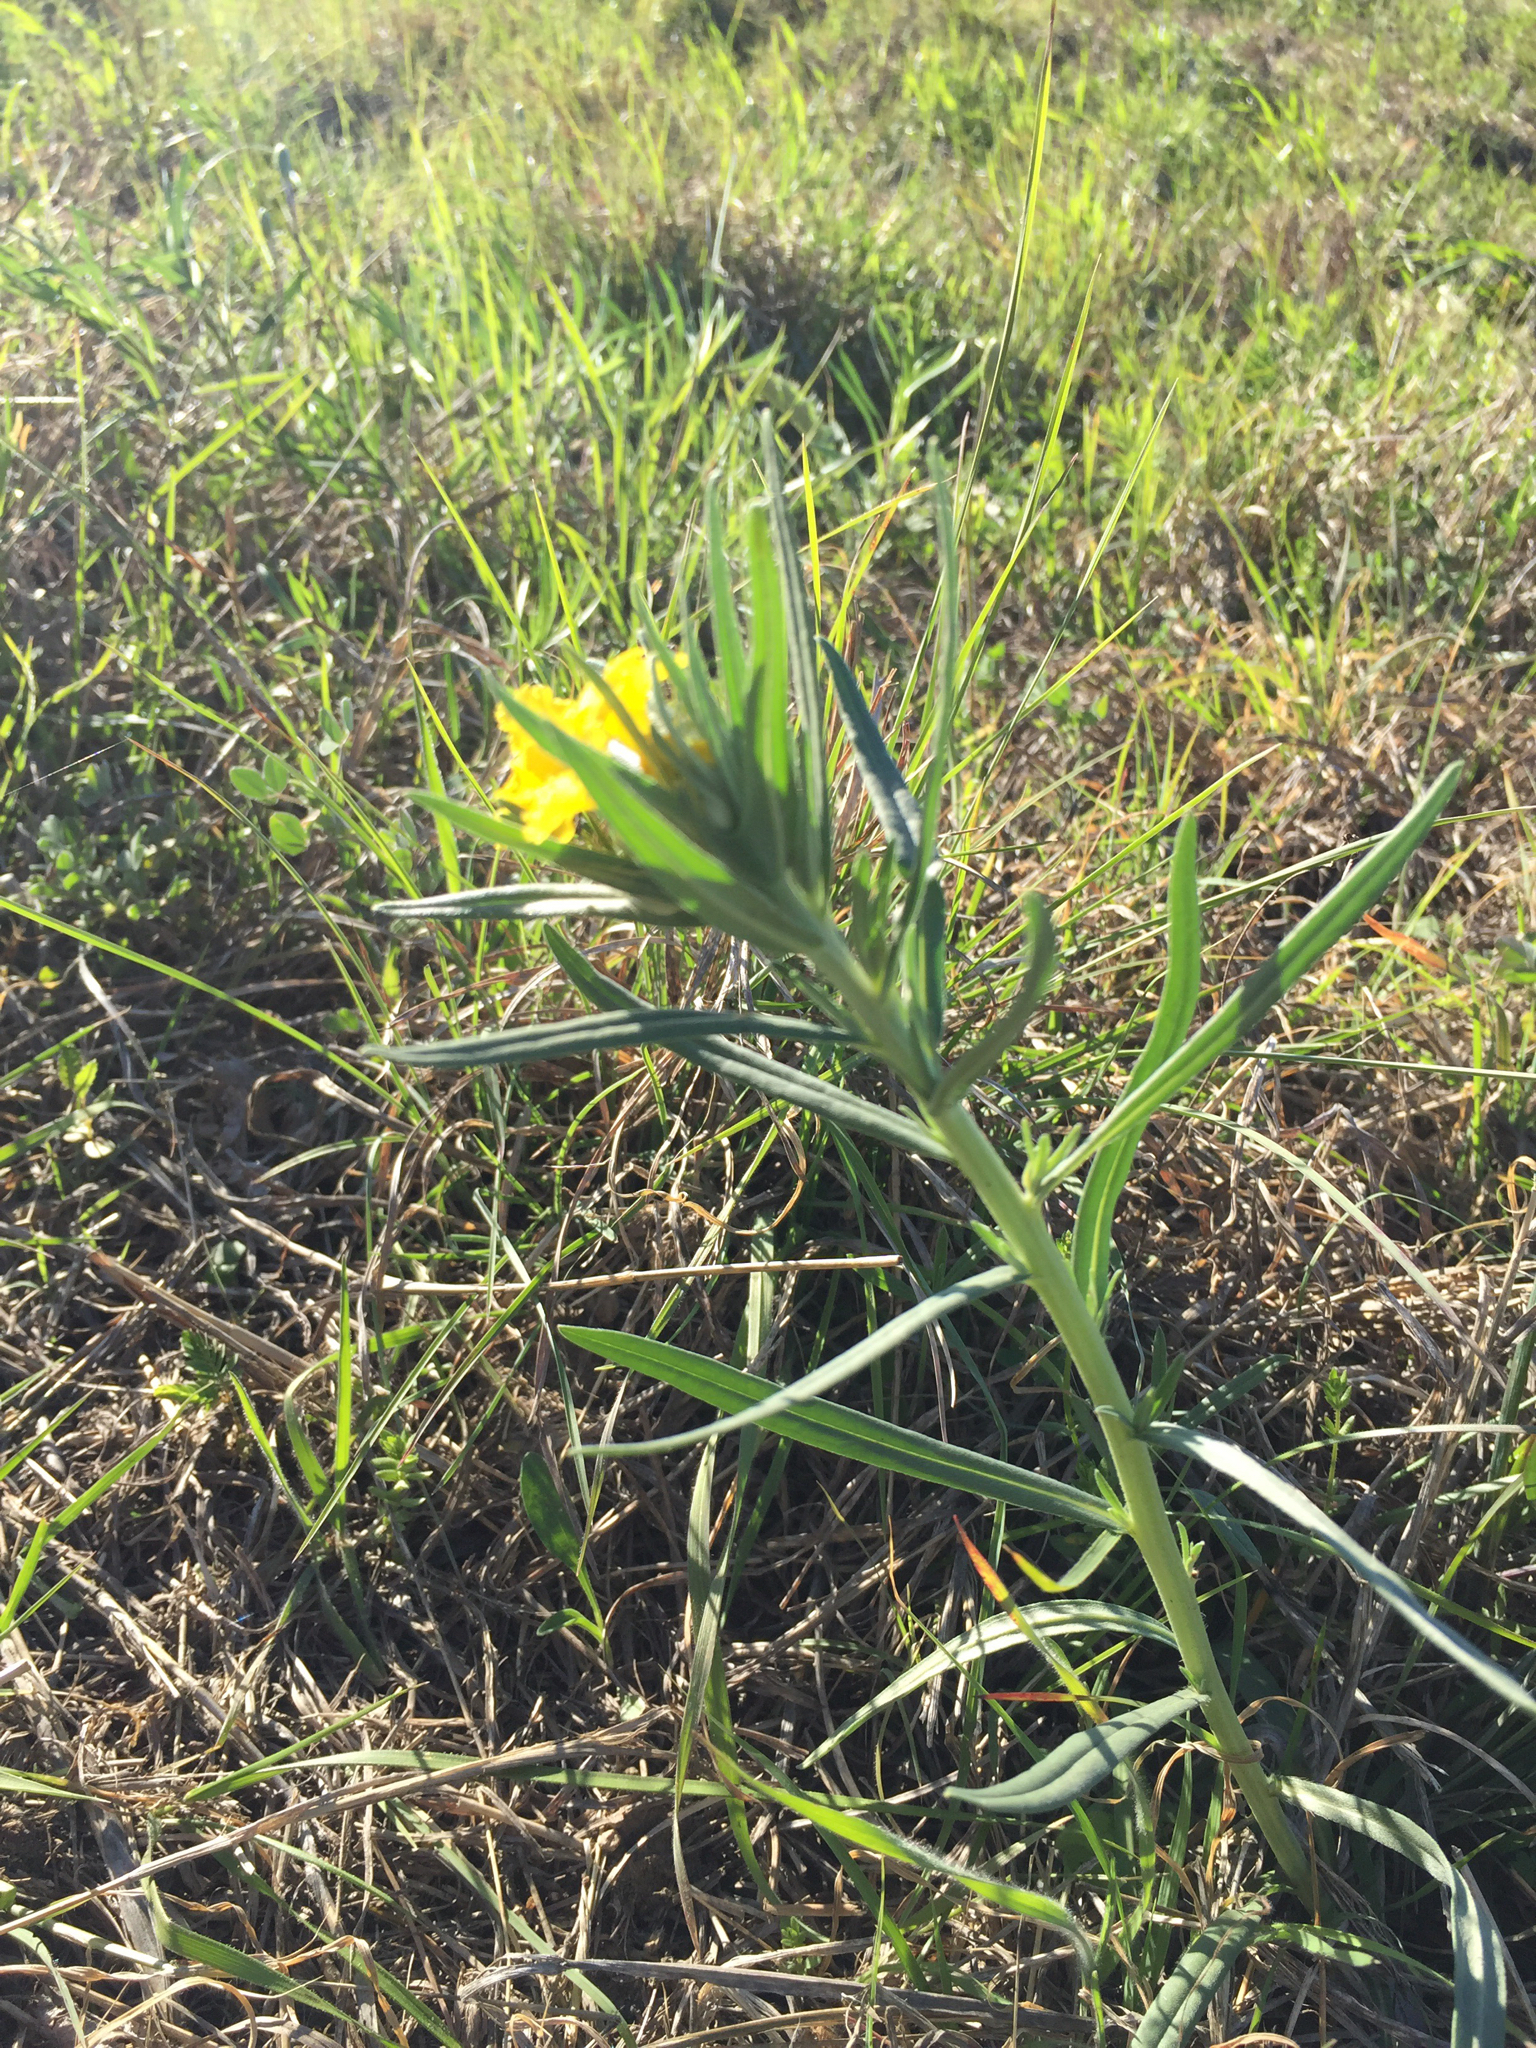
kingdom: Plantae
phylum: Tracheophyta
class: Magnoliopsida
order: Boraginales
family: Boraginaceae
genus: Lithospermum
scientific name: Lithospermum incisum
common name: Fringed gromwell
